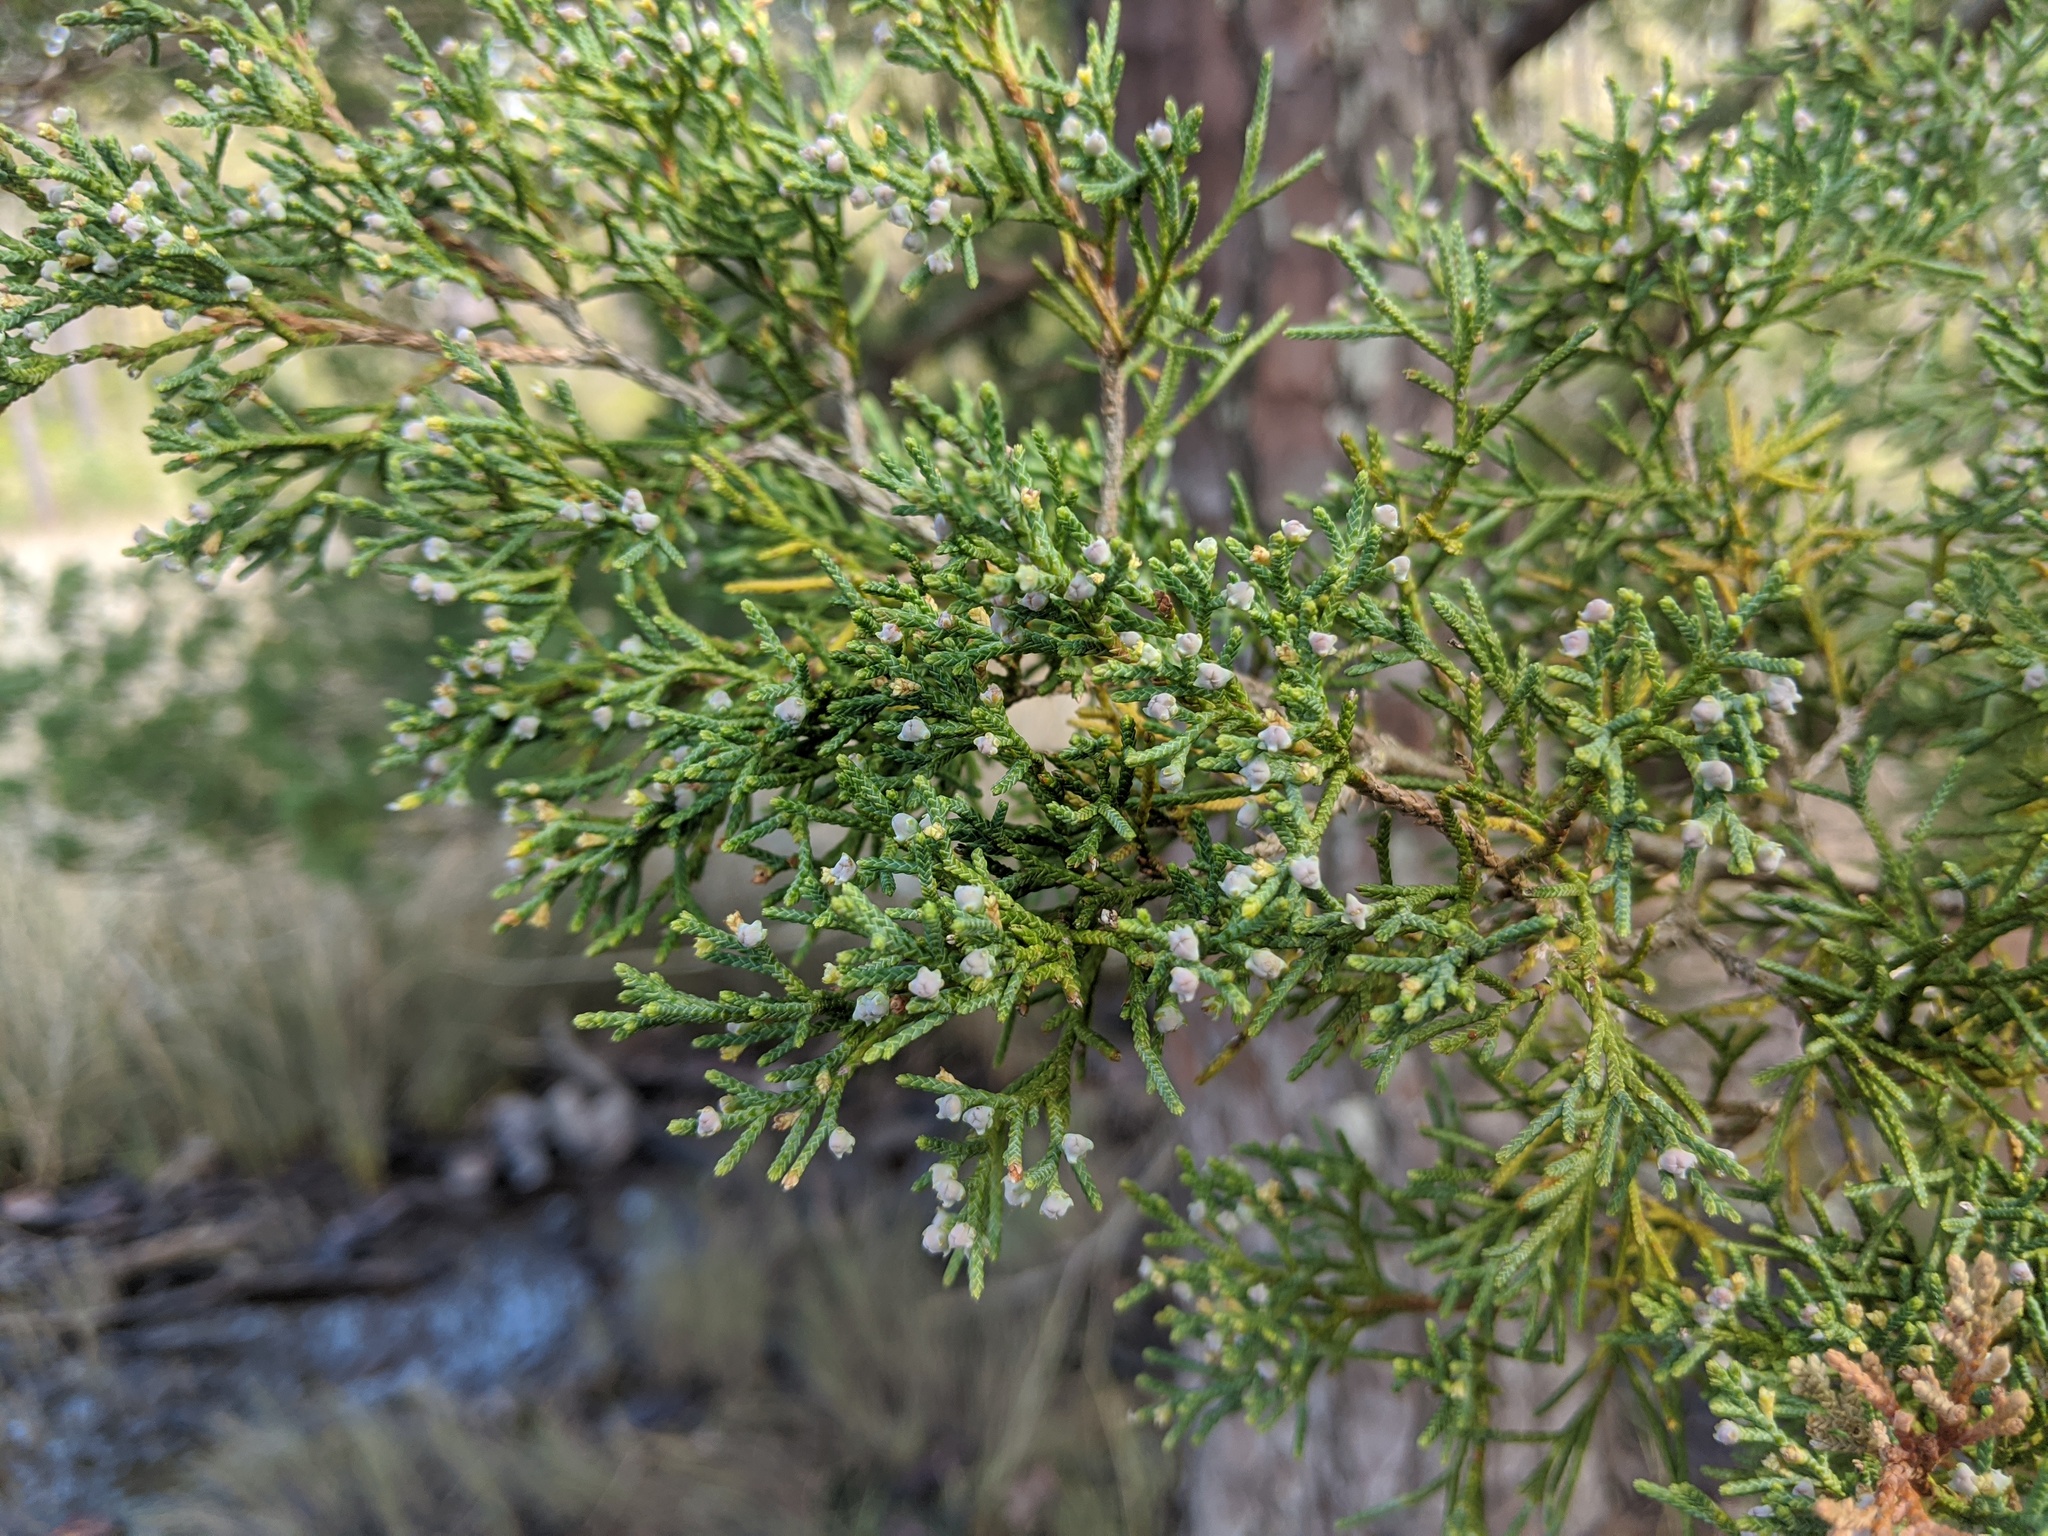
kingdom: Plantae
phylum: Tracheophyta
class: Pinopsida
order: Pinales
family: Cupressaceae
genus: Juniperus
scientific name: Juniperus virginiana
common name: Red juniper
